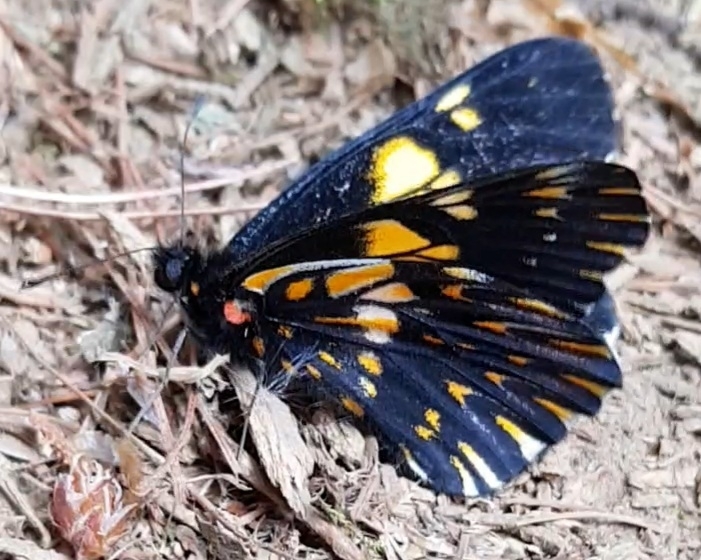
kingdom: Animalia
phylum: Arthropoda
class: Insecta
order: Lepidoptera
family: Pieridae
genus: Archonias
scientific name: Archonias teutila
